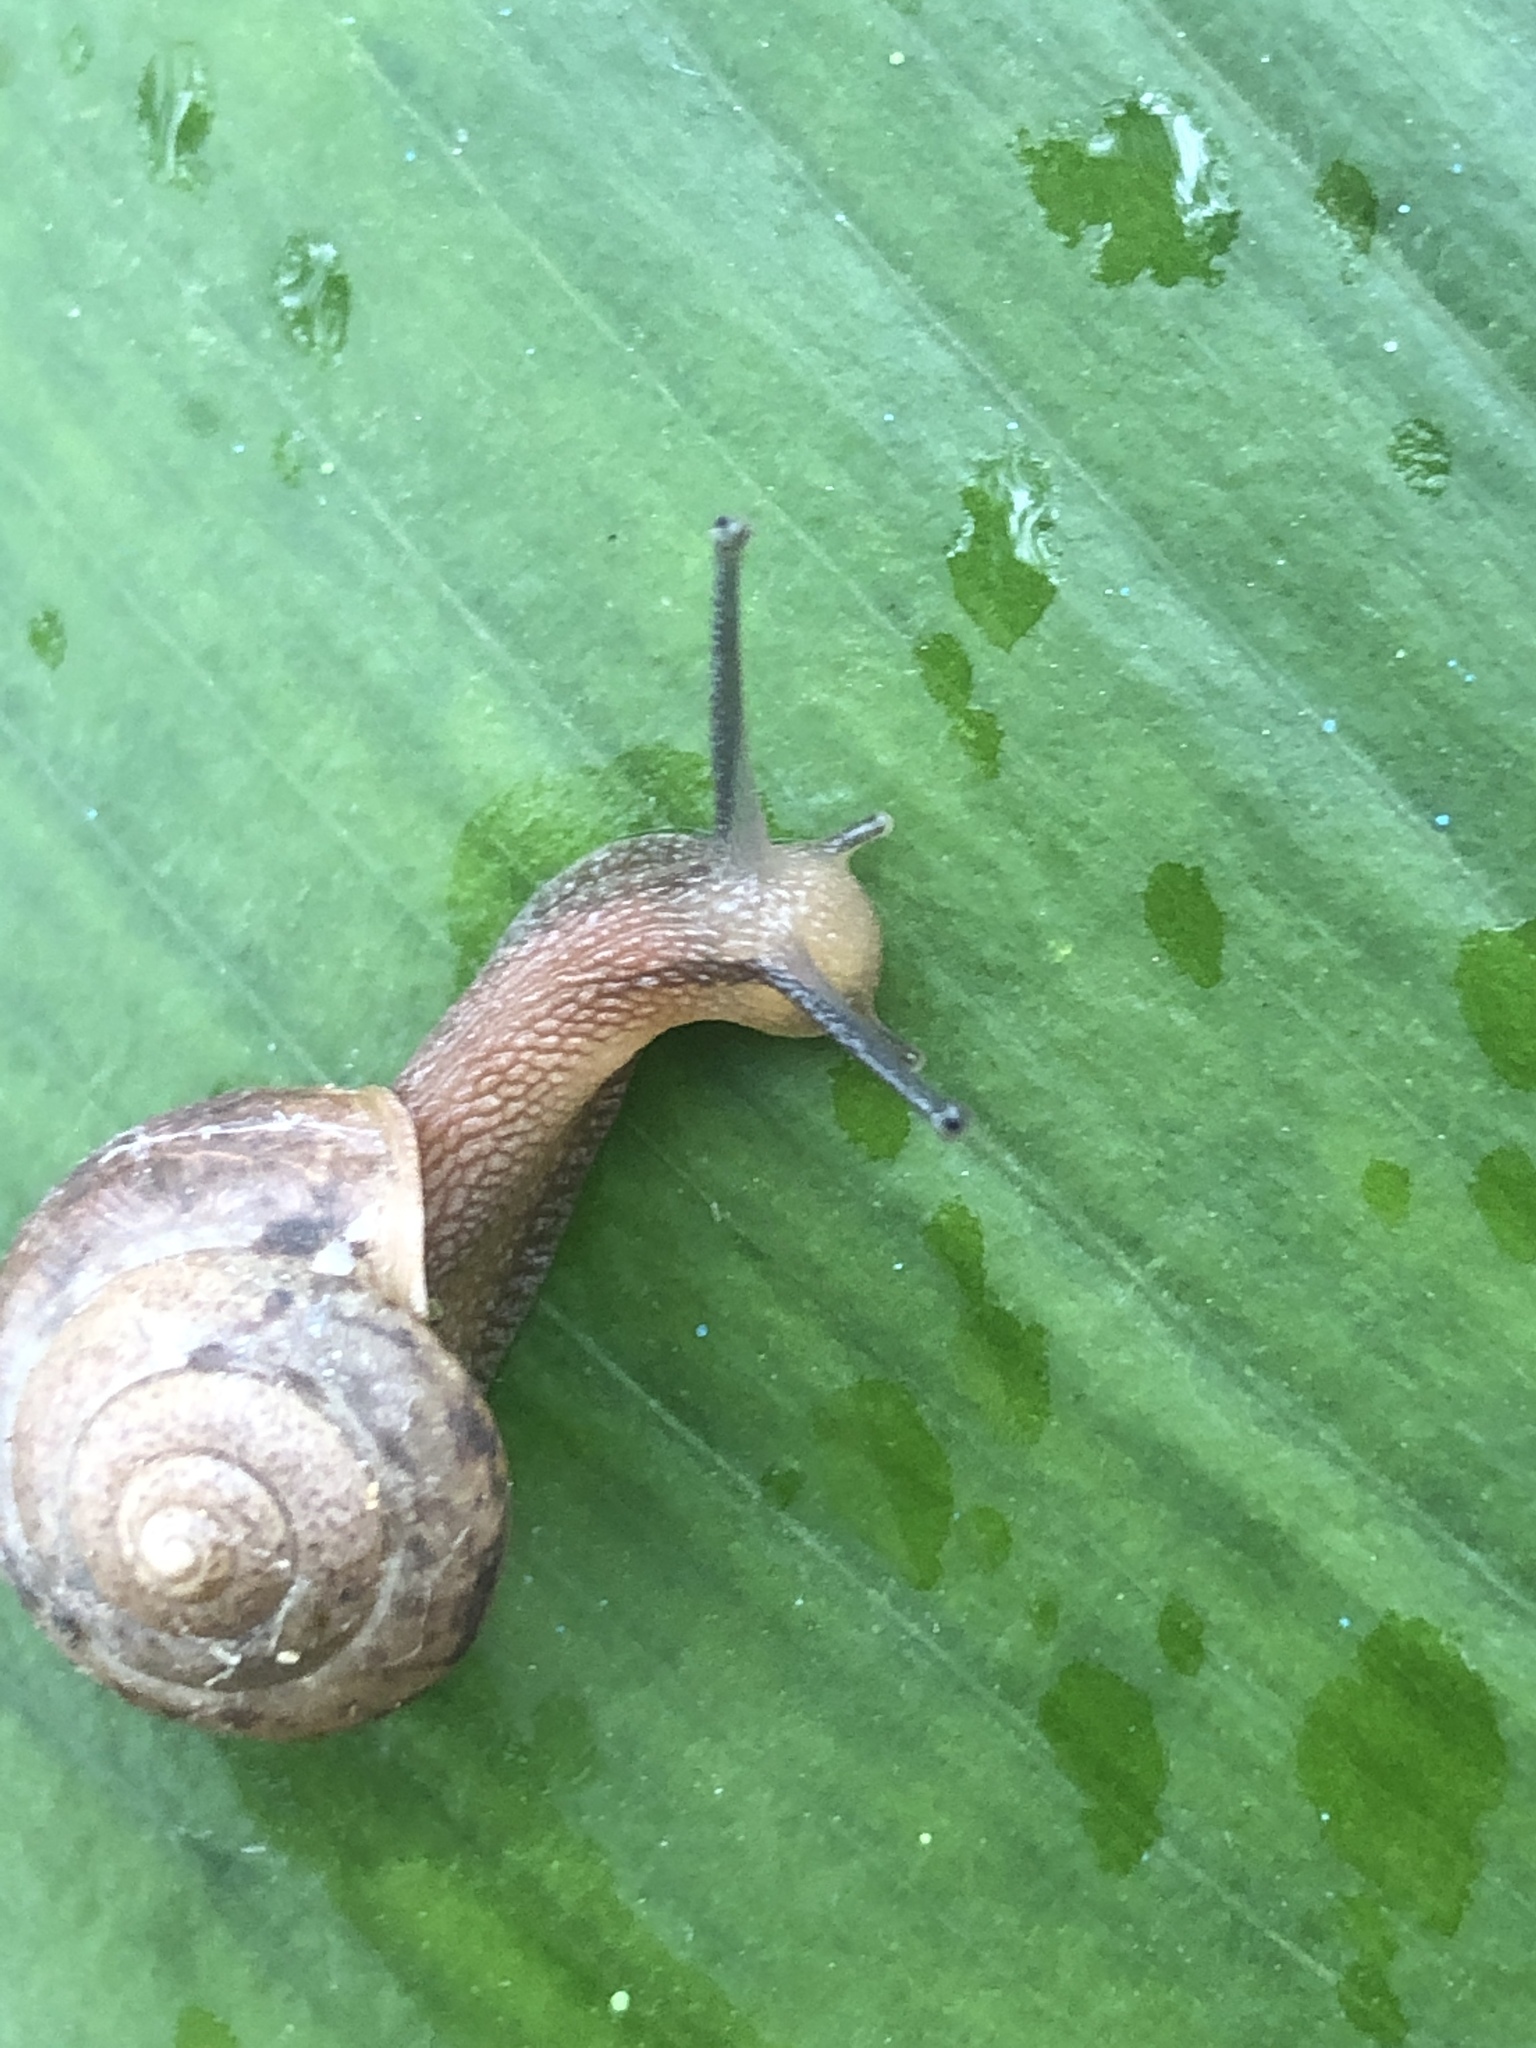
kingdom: Animalia
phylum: Mollusca
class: Gastropoda
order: Stylommatophora
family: Camaenidae
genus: Bradybaena
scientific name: Bradybaena similaris
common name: Asian trampsnail
